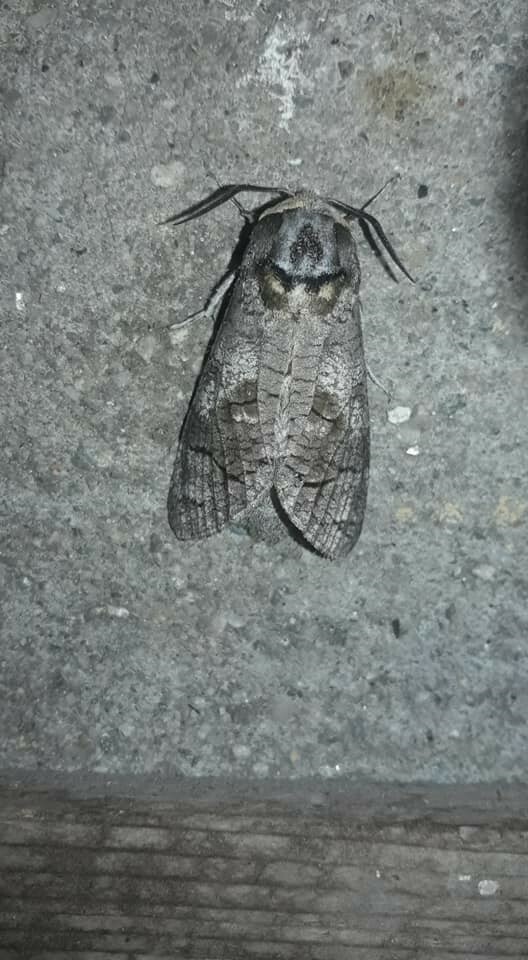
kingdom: Animalia
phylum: Arthropoda
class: Insecta
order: Lepidoptera
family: Cossidae
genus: Cossus
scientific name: Cossus cossus
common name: Goat moth
